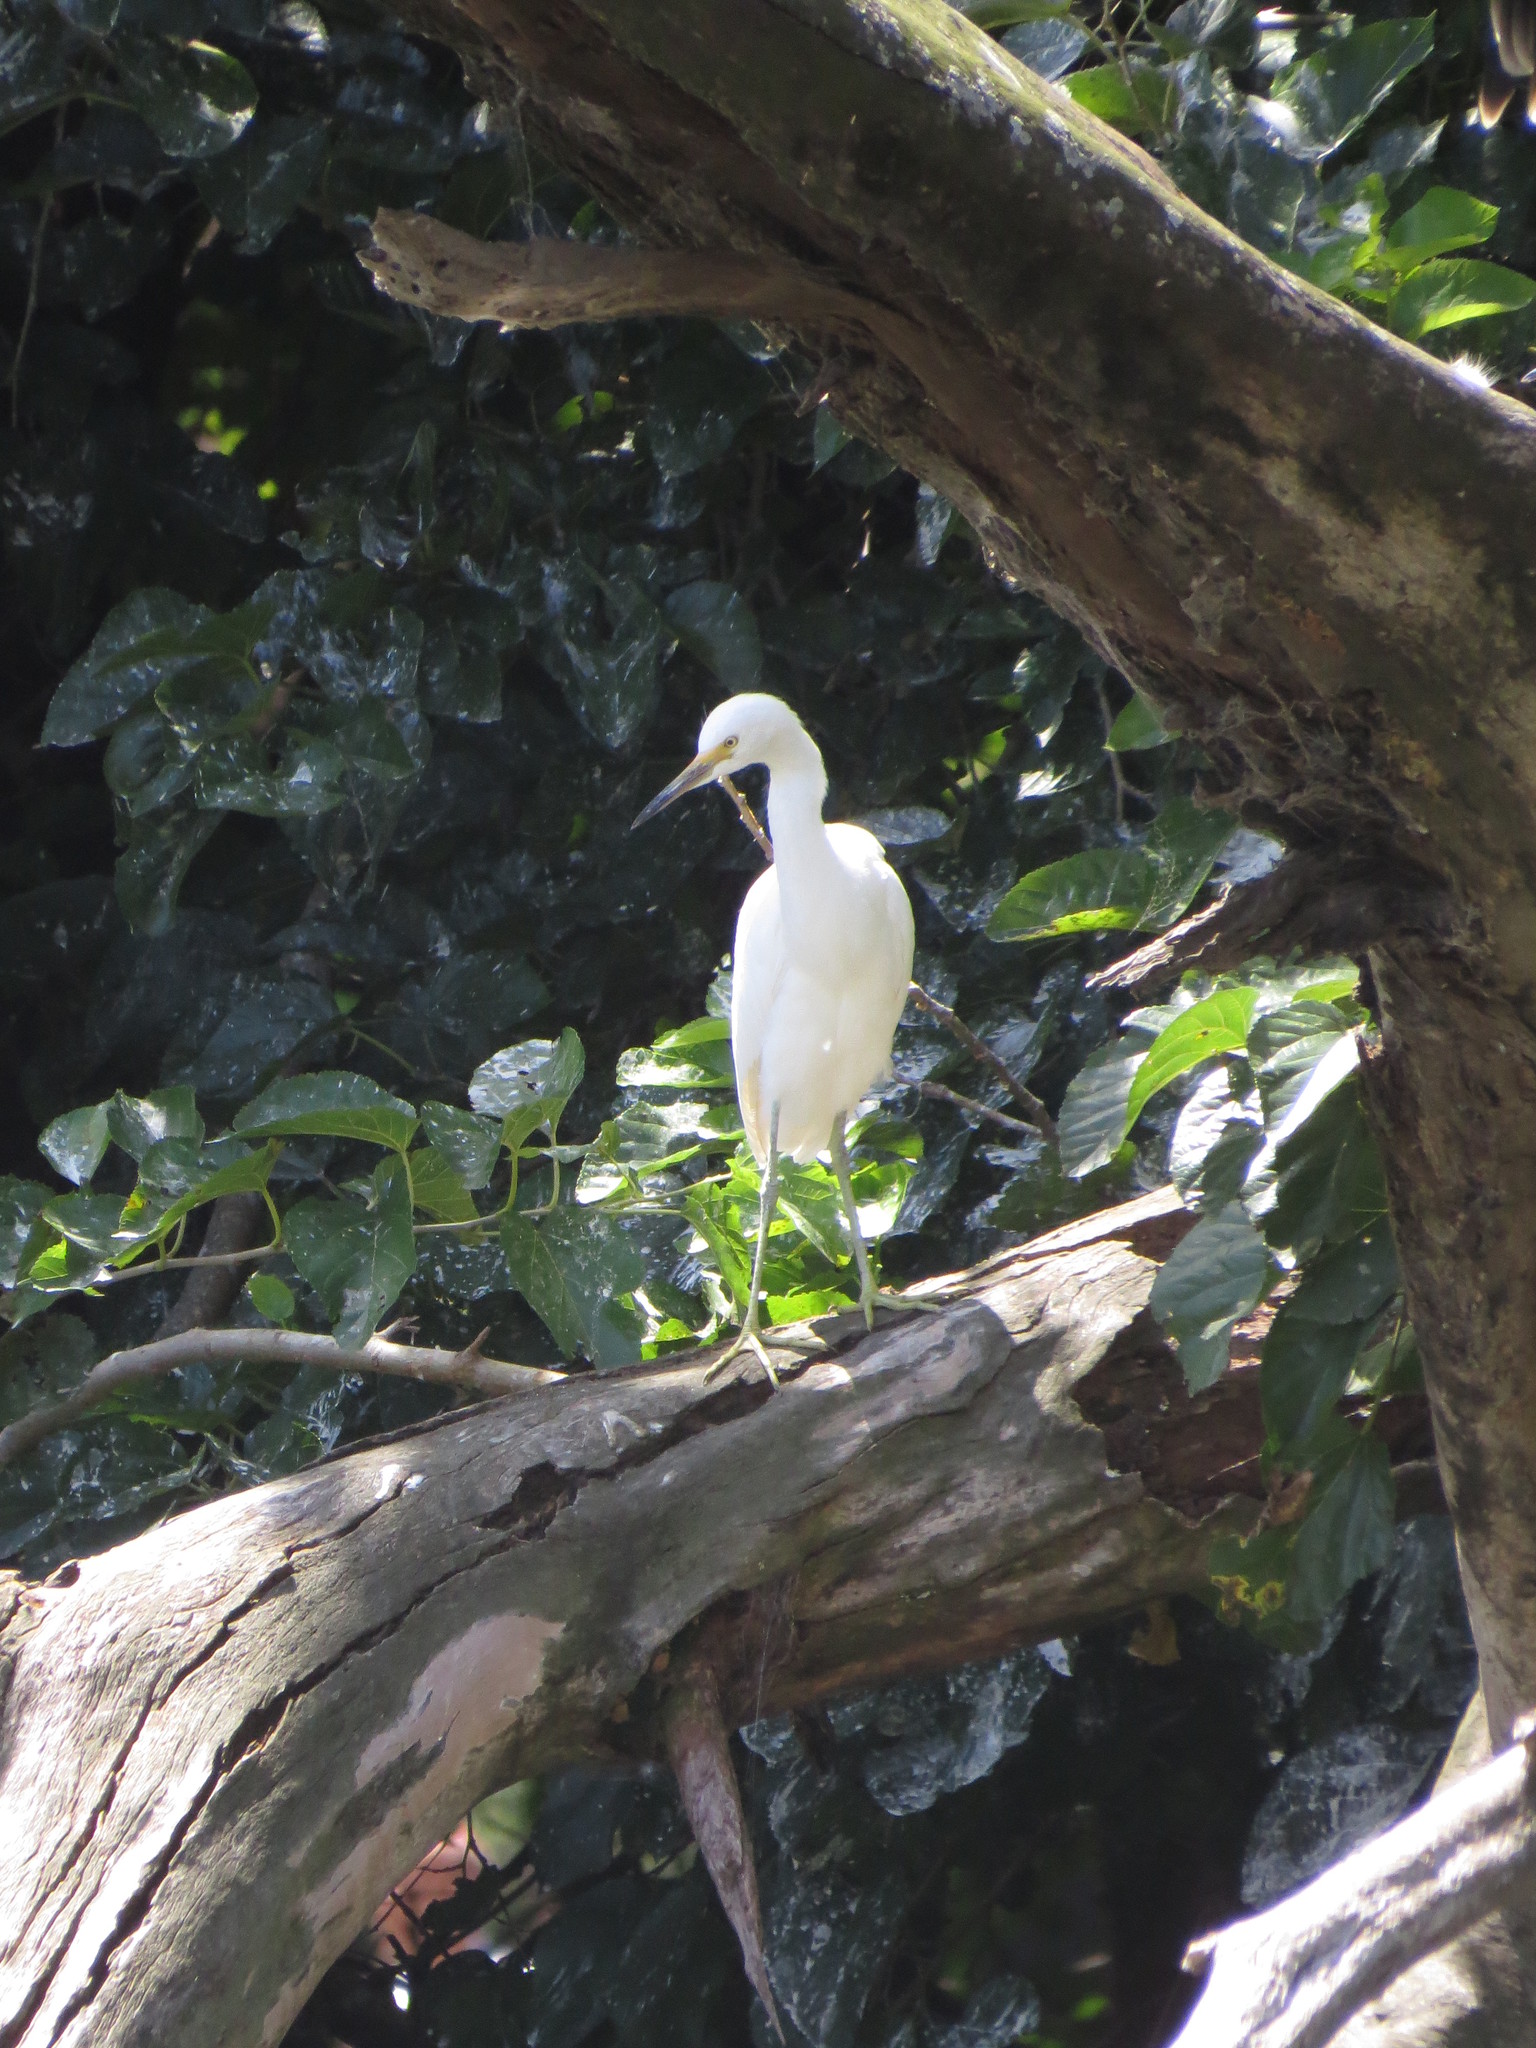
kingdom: Animalia
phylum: Chordata
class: Aves
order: Pelecaniformes
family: Ardeidae
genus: Egretta
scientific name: Egretta thula
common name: Snowy egret
